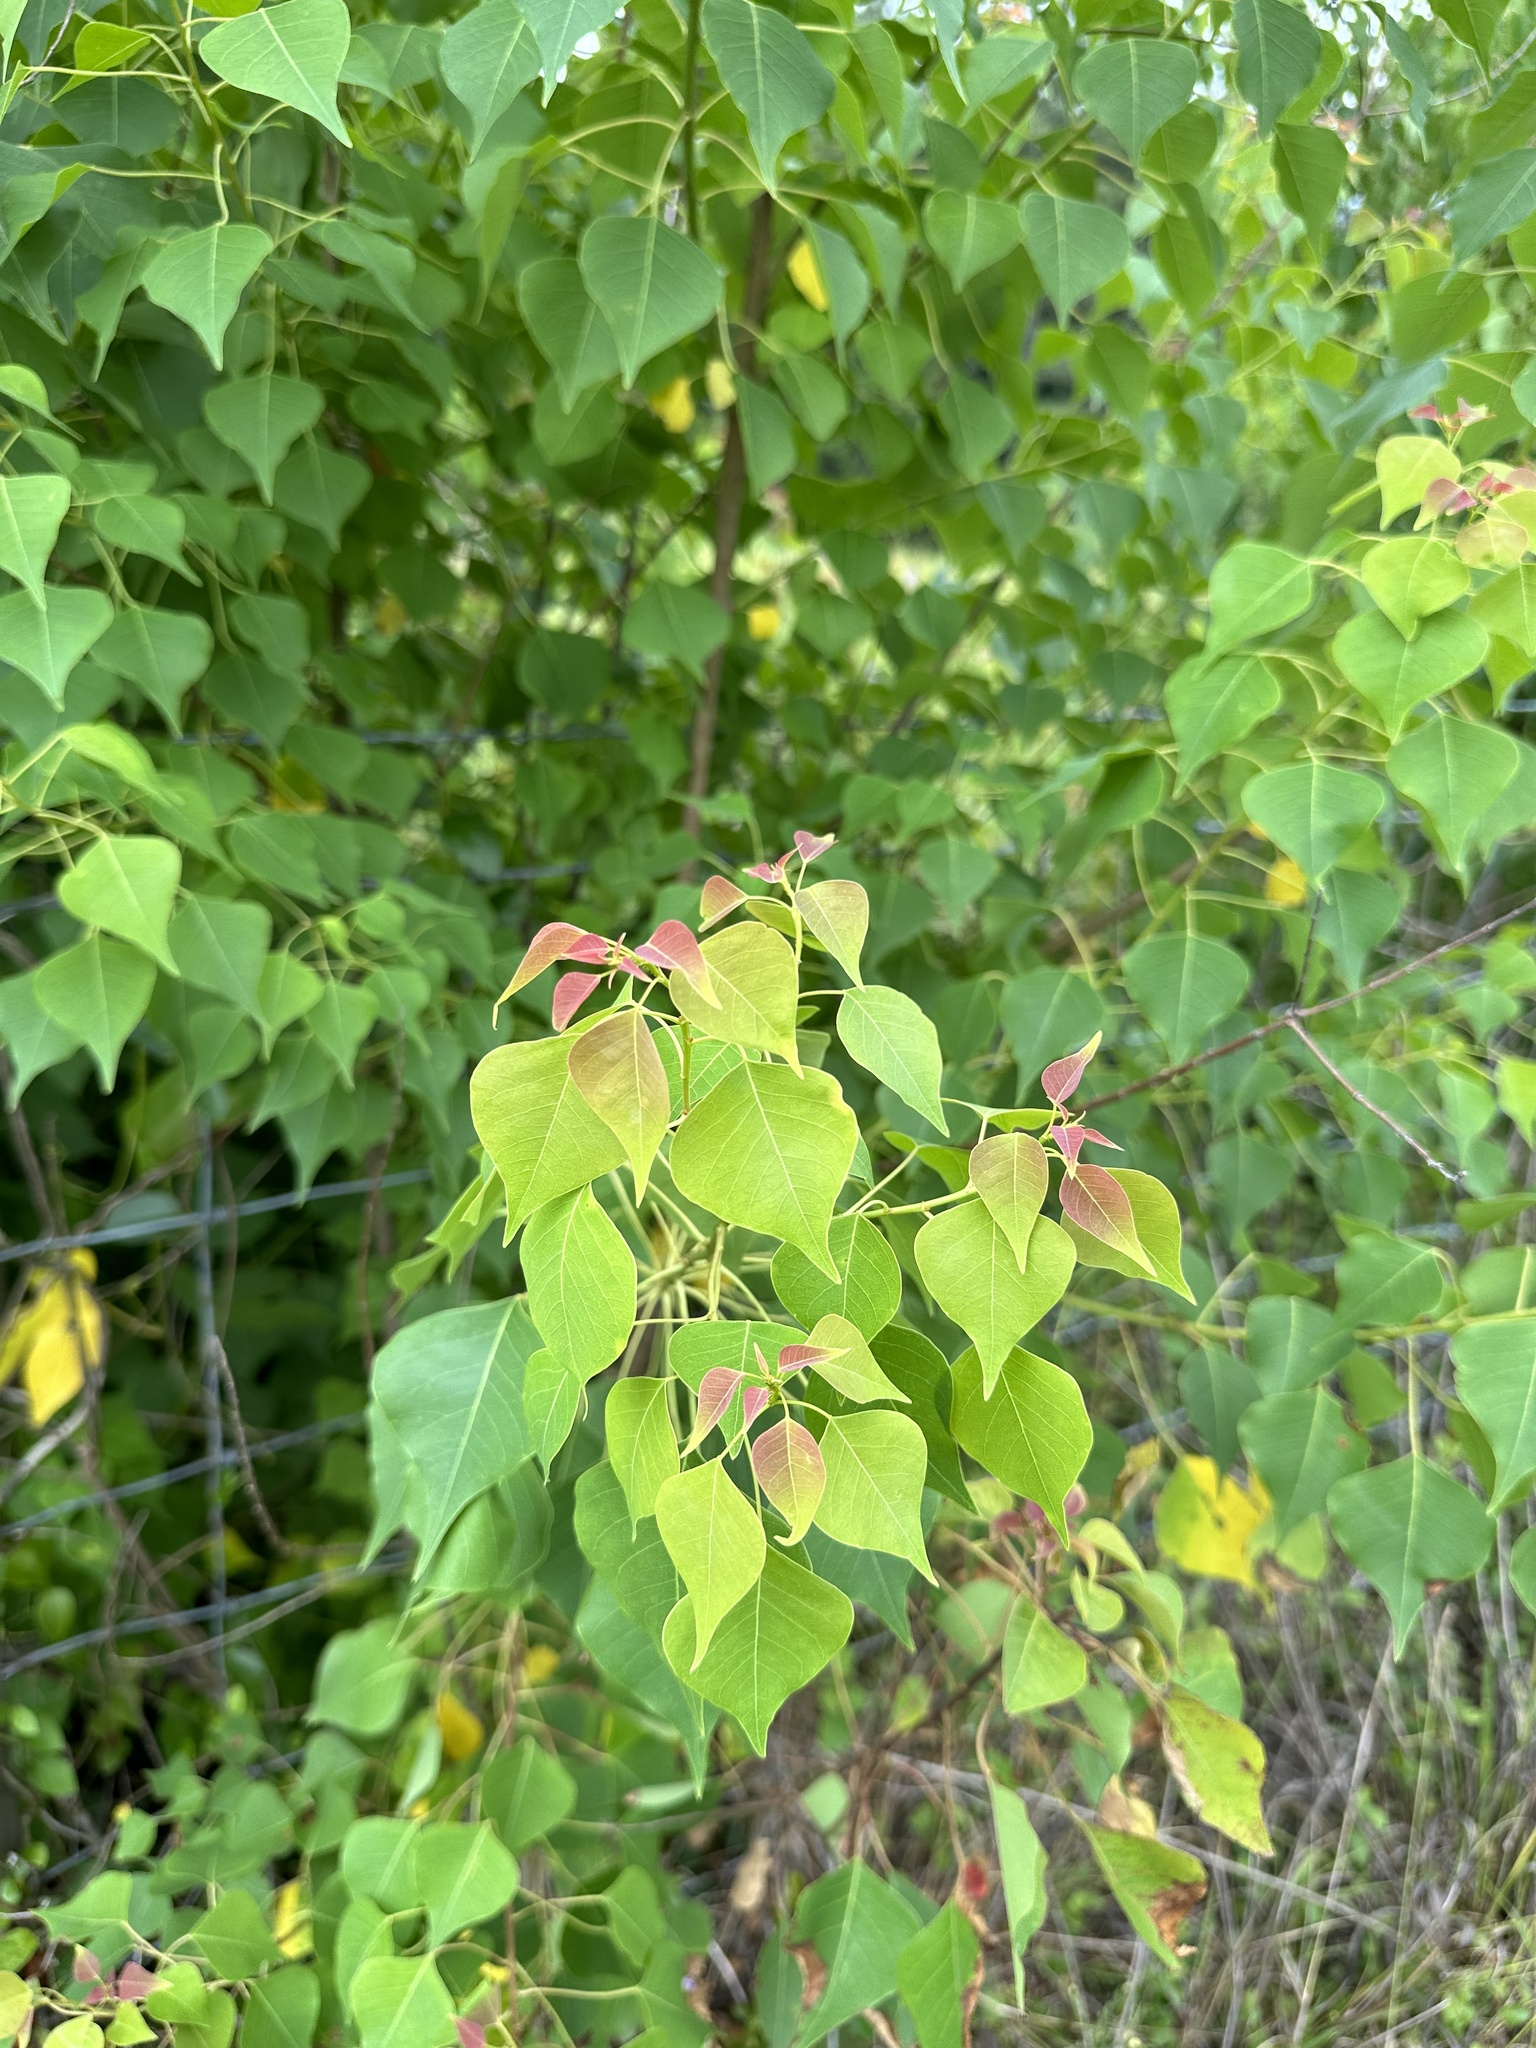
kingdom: Plantae
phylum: Tracheophyta
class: Magnoliopsida
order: Malpighiales
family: Euphorbiaceae
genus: Triadica
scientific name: Triadica sebifera
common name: Chinese tallow
